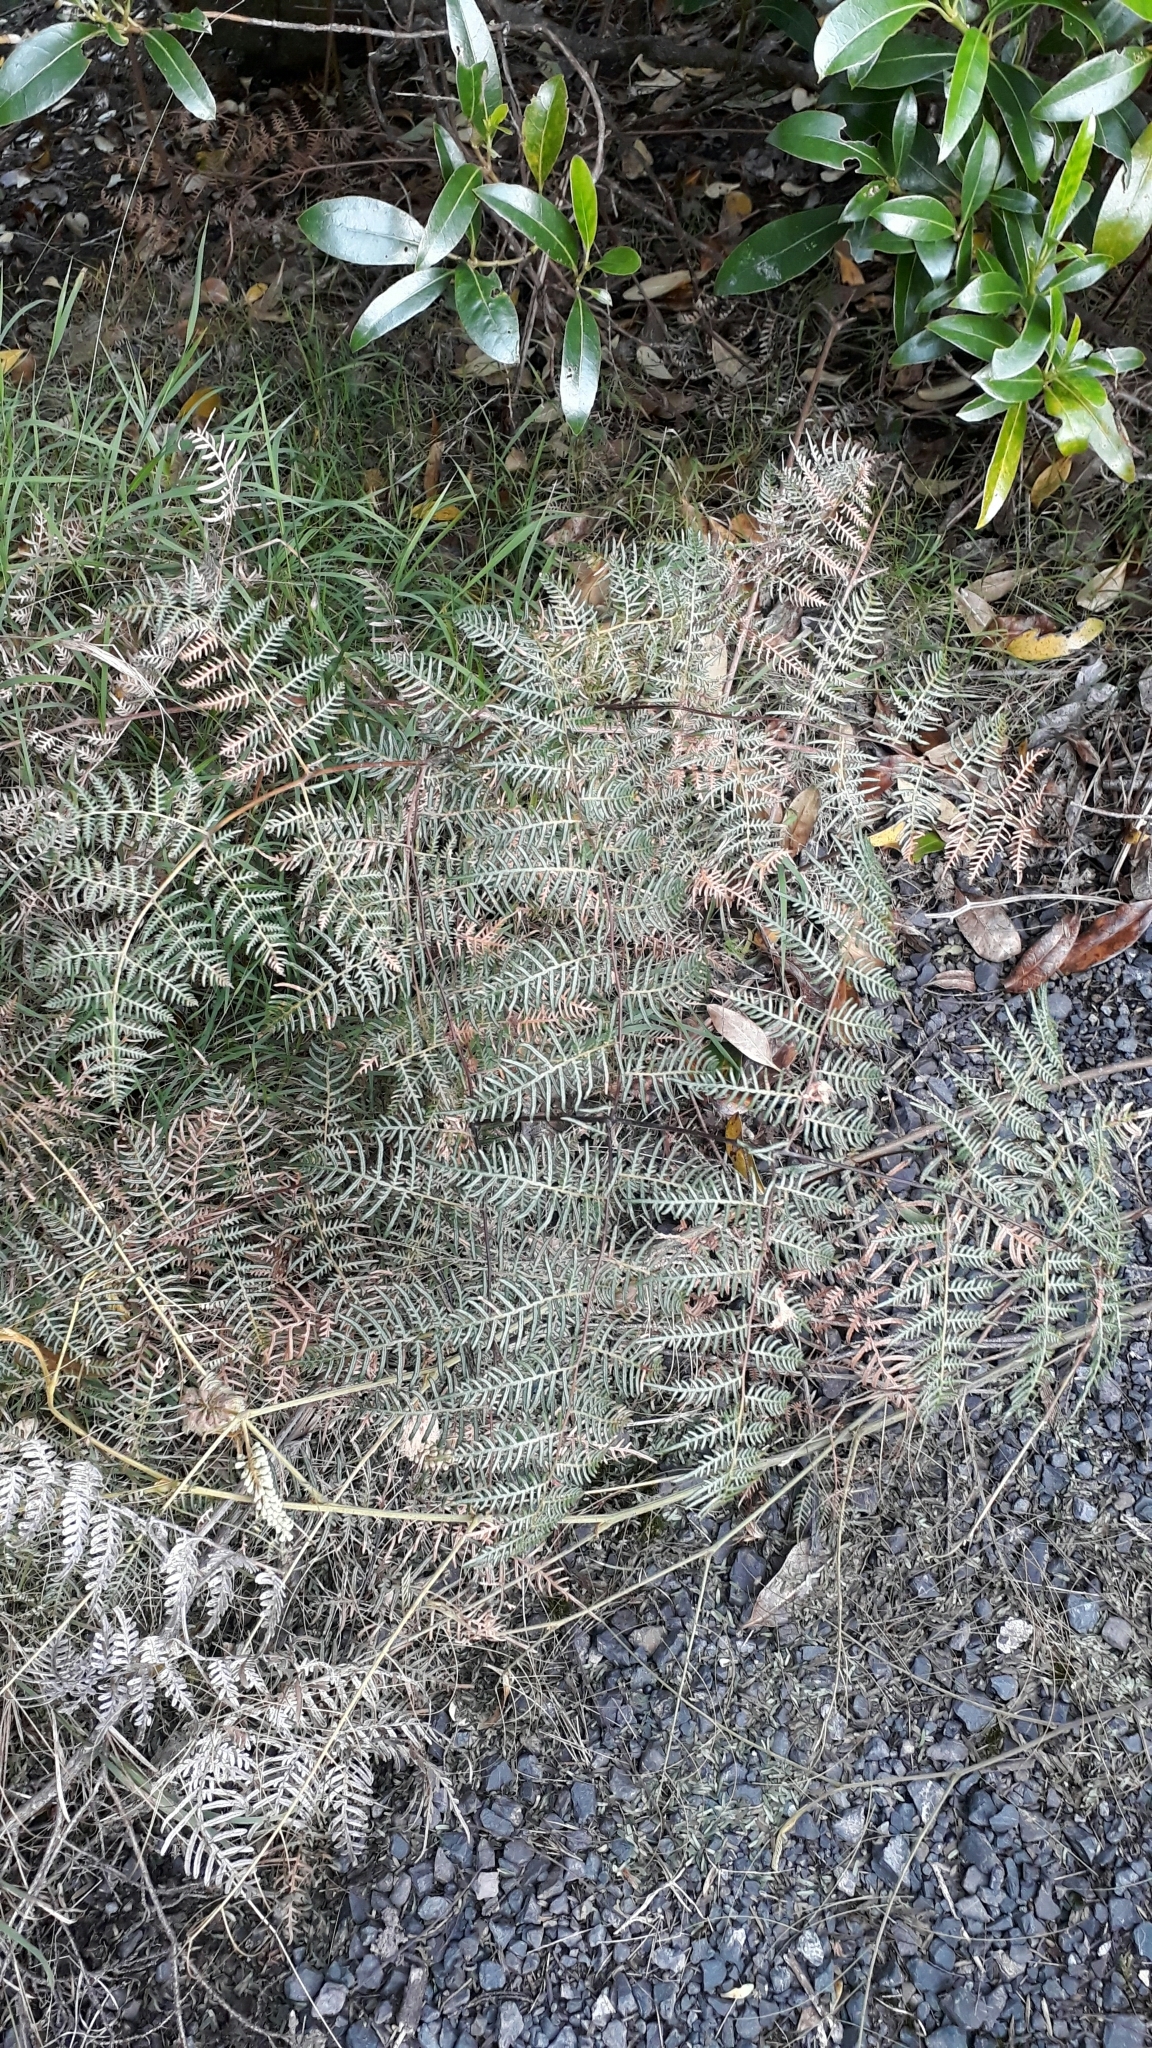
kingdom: Plantae
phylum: Tracheophyta
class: Polypodiopsida
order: Polypodiales
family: Dennstaedtiaceae
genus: Pteridium
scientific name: Pteridium esculentum
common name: Bracken fern
